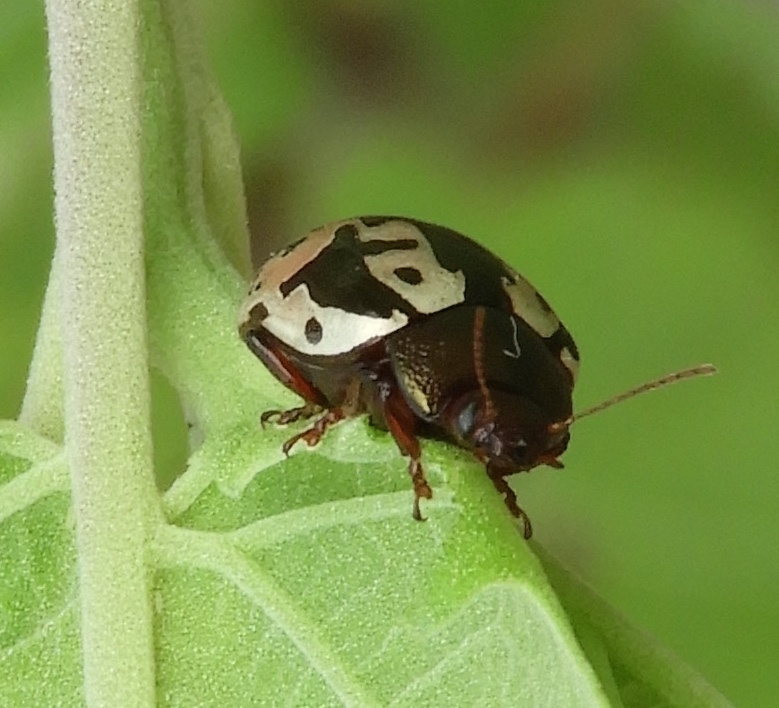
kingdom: Animalia
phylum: Arthropoda
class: Insecta
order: Coleoptera
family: Chrysomelidae
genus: Calligrapha
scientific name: Calligrapha intermedia
